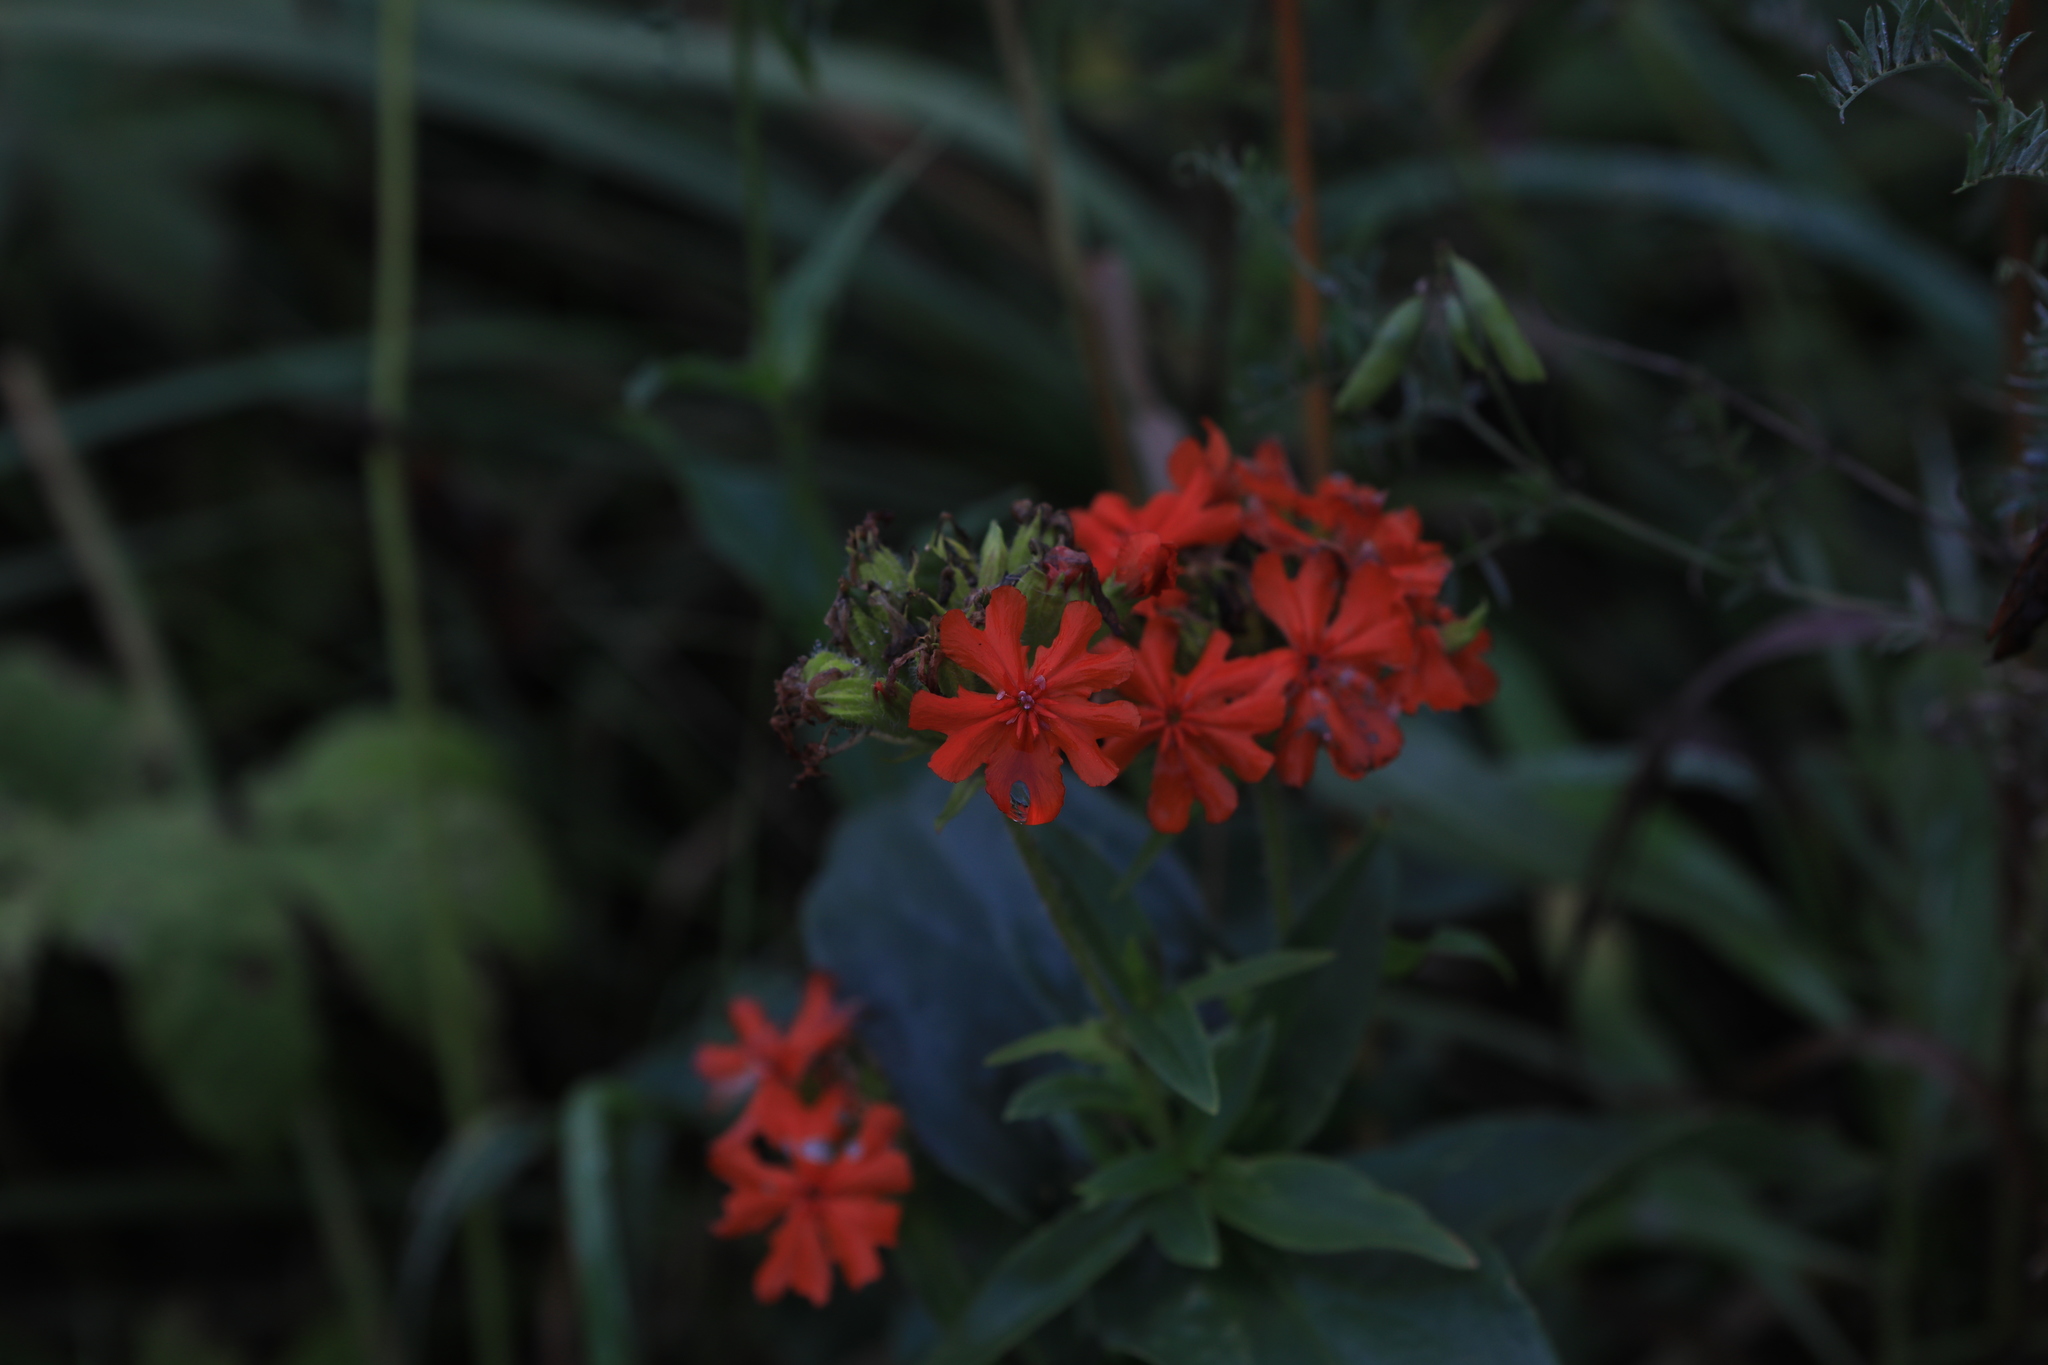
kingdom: Plantae
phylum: Tracheophyta
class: Magnoliopsida
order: Caryophyllales
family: Caryophyllaceae
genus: Silene
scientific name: Silene chalcedonica
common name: Maltese-cross
